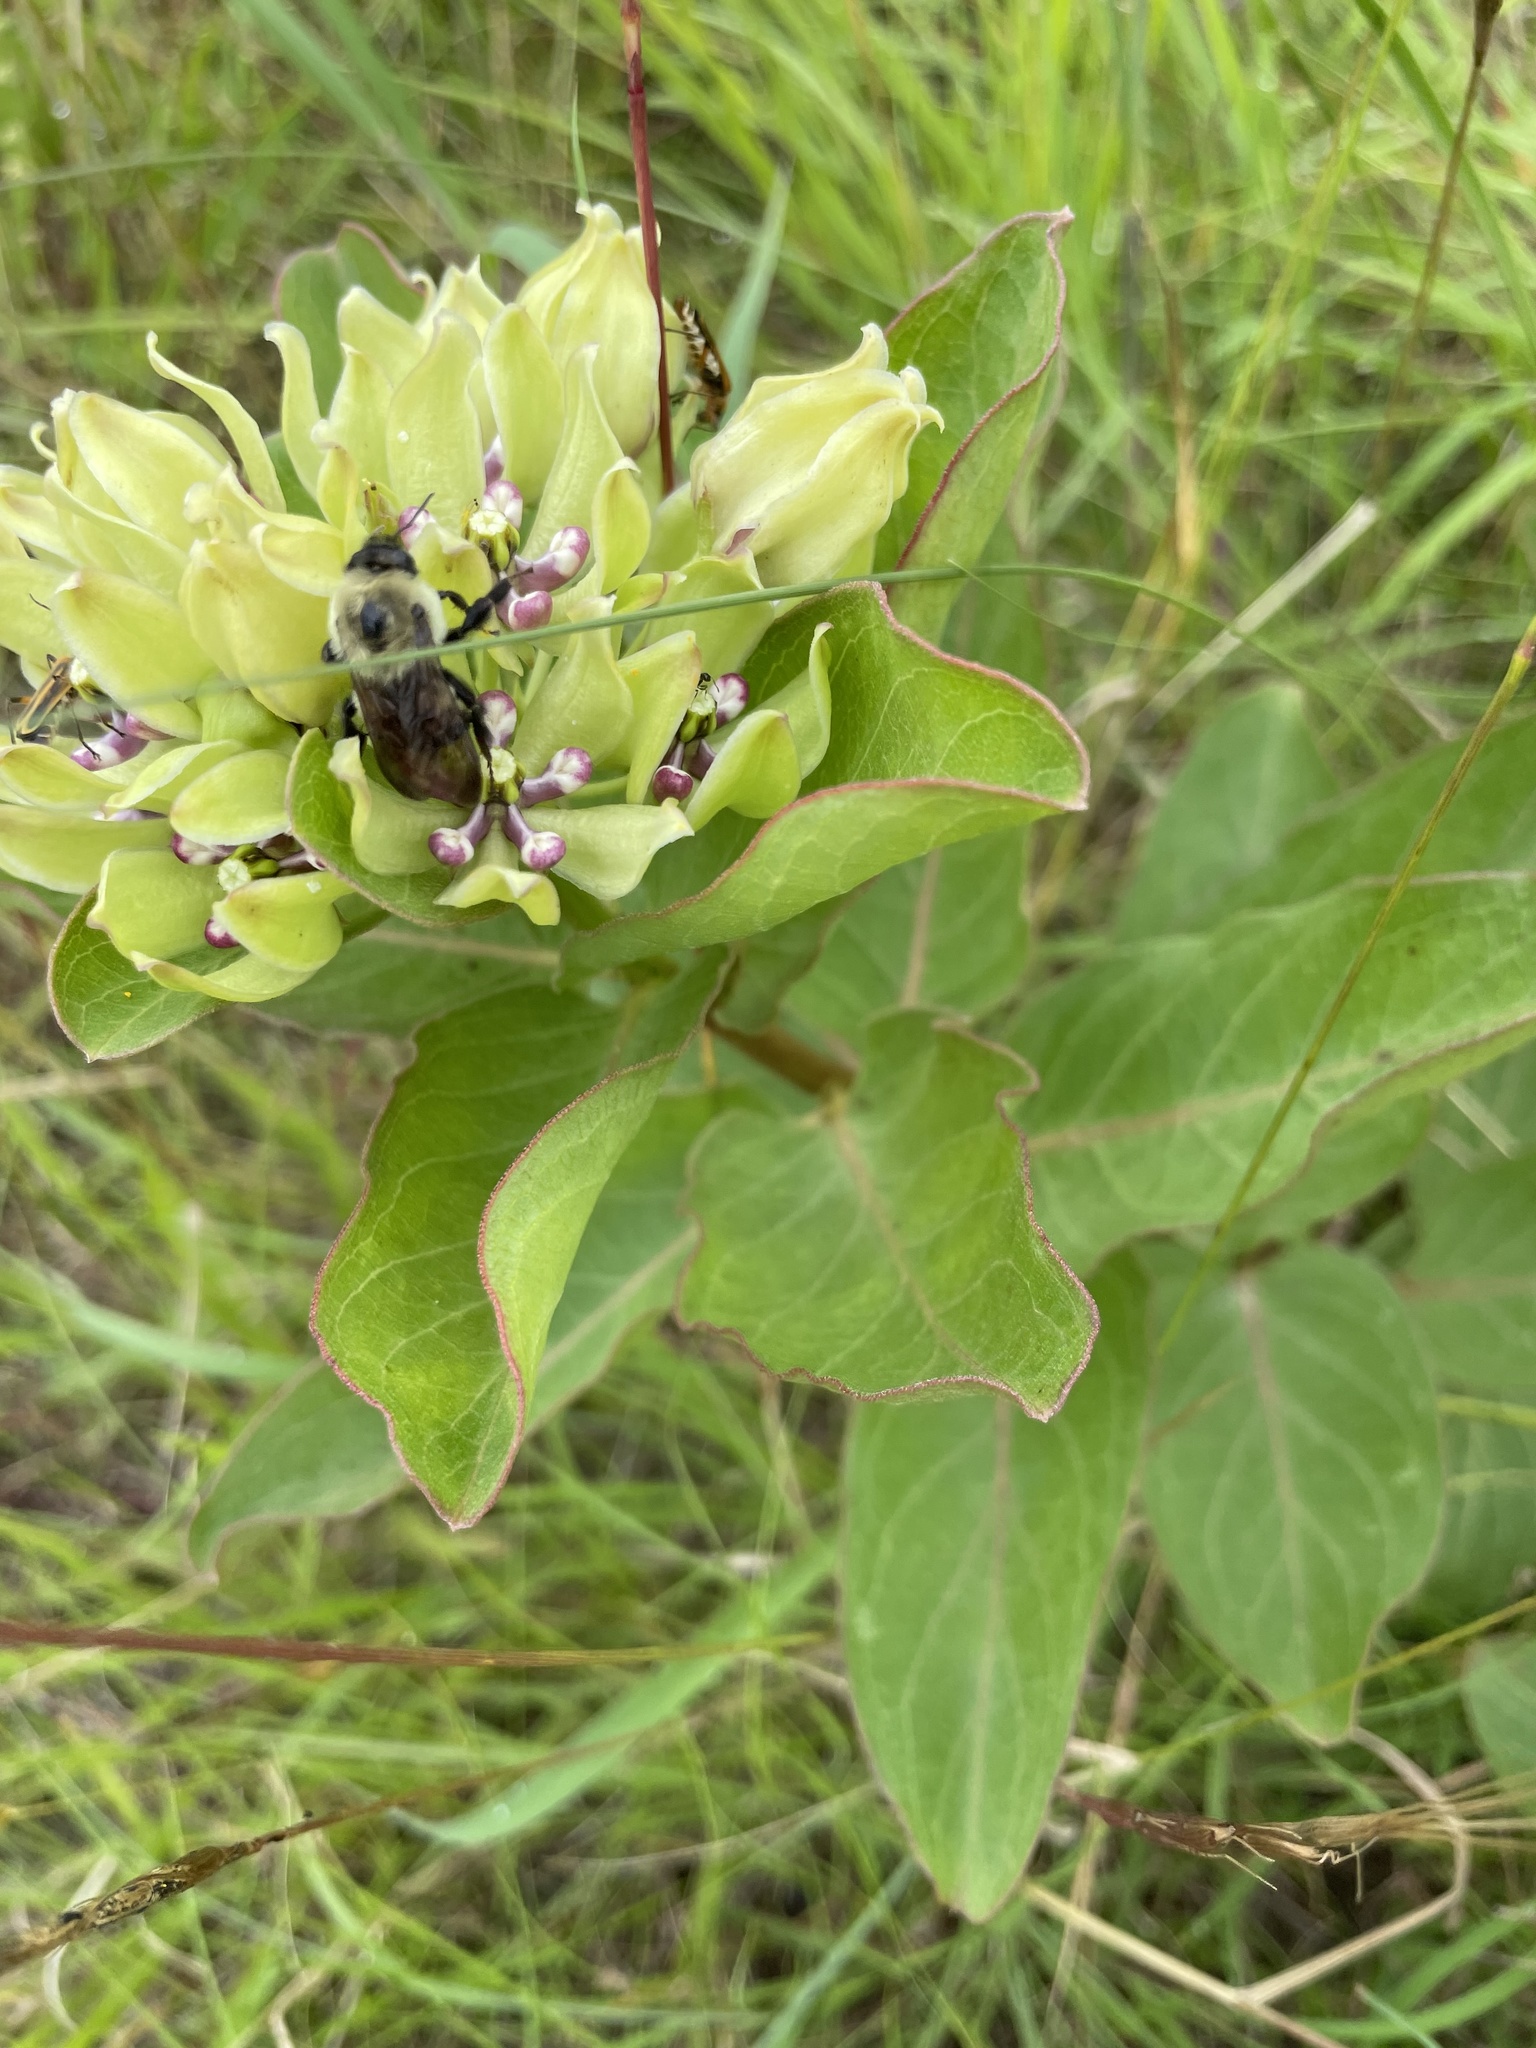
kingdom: Animalia
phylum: Arthropoda
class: Insecta
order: Hymenoptera
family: Apidae
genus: Bombus
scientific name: Bombus griseocollis
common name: Brown-belted bumble bee
